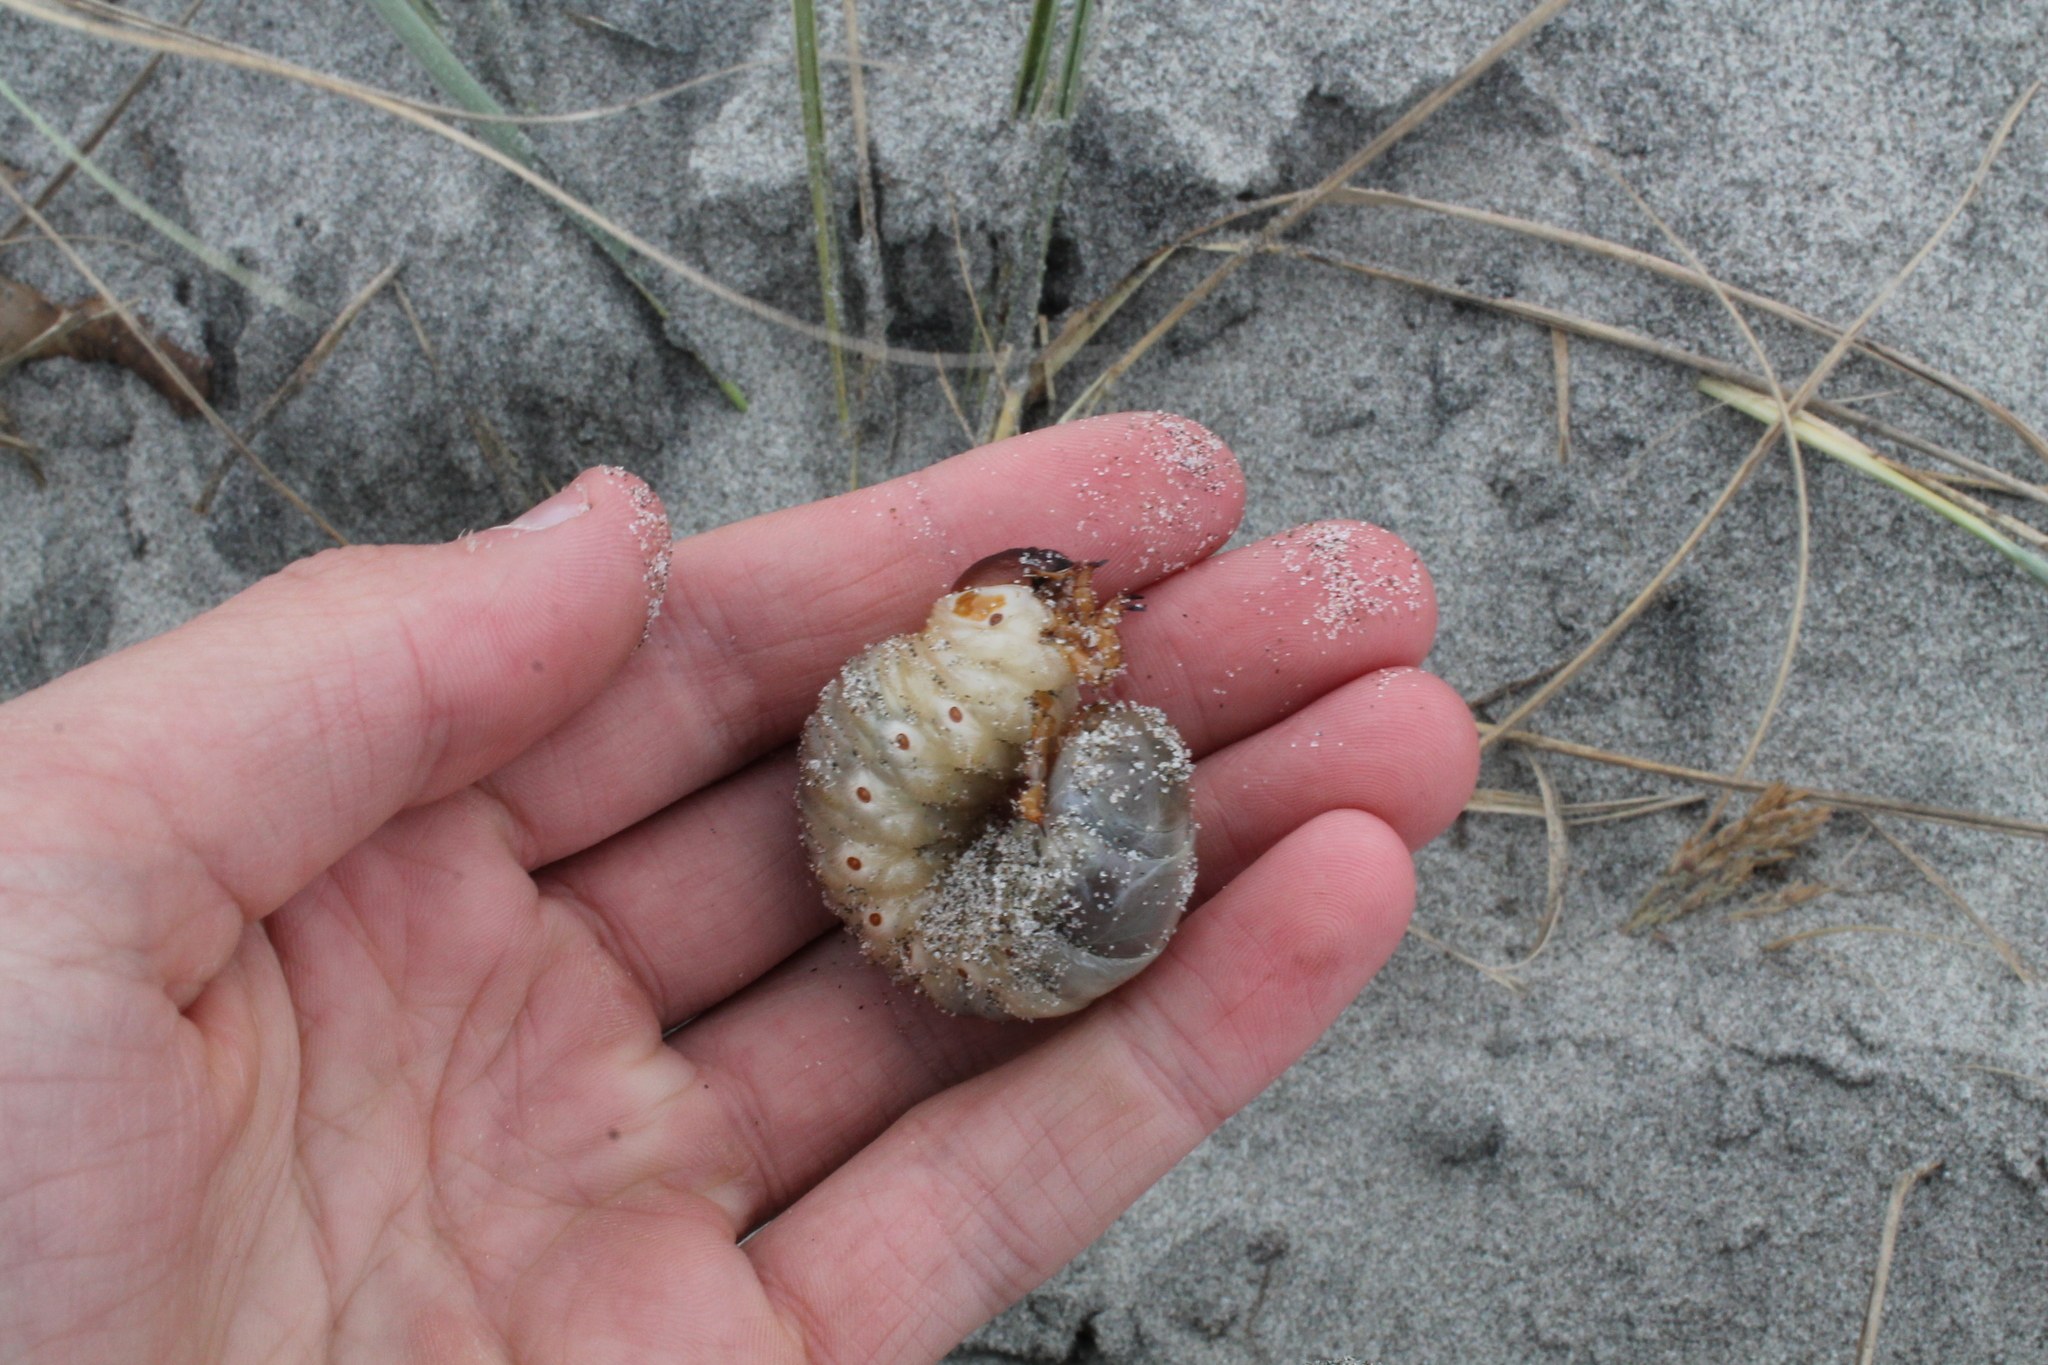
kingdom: Animalia
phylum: Arthropoda
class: Insecta
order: Coleoptera
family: Scarabaeidae
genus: Pericoptus
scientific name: Pericoptus truncatus
